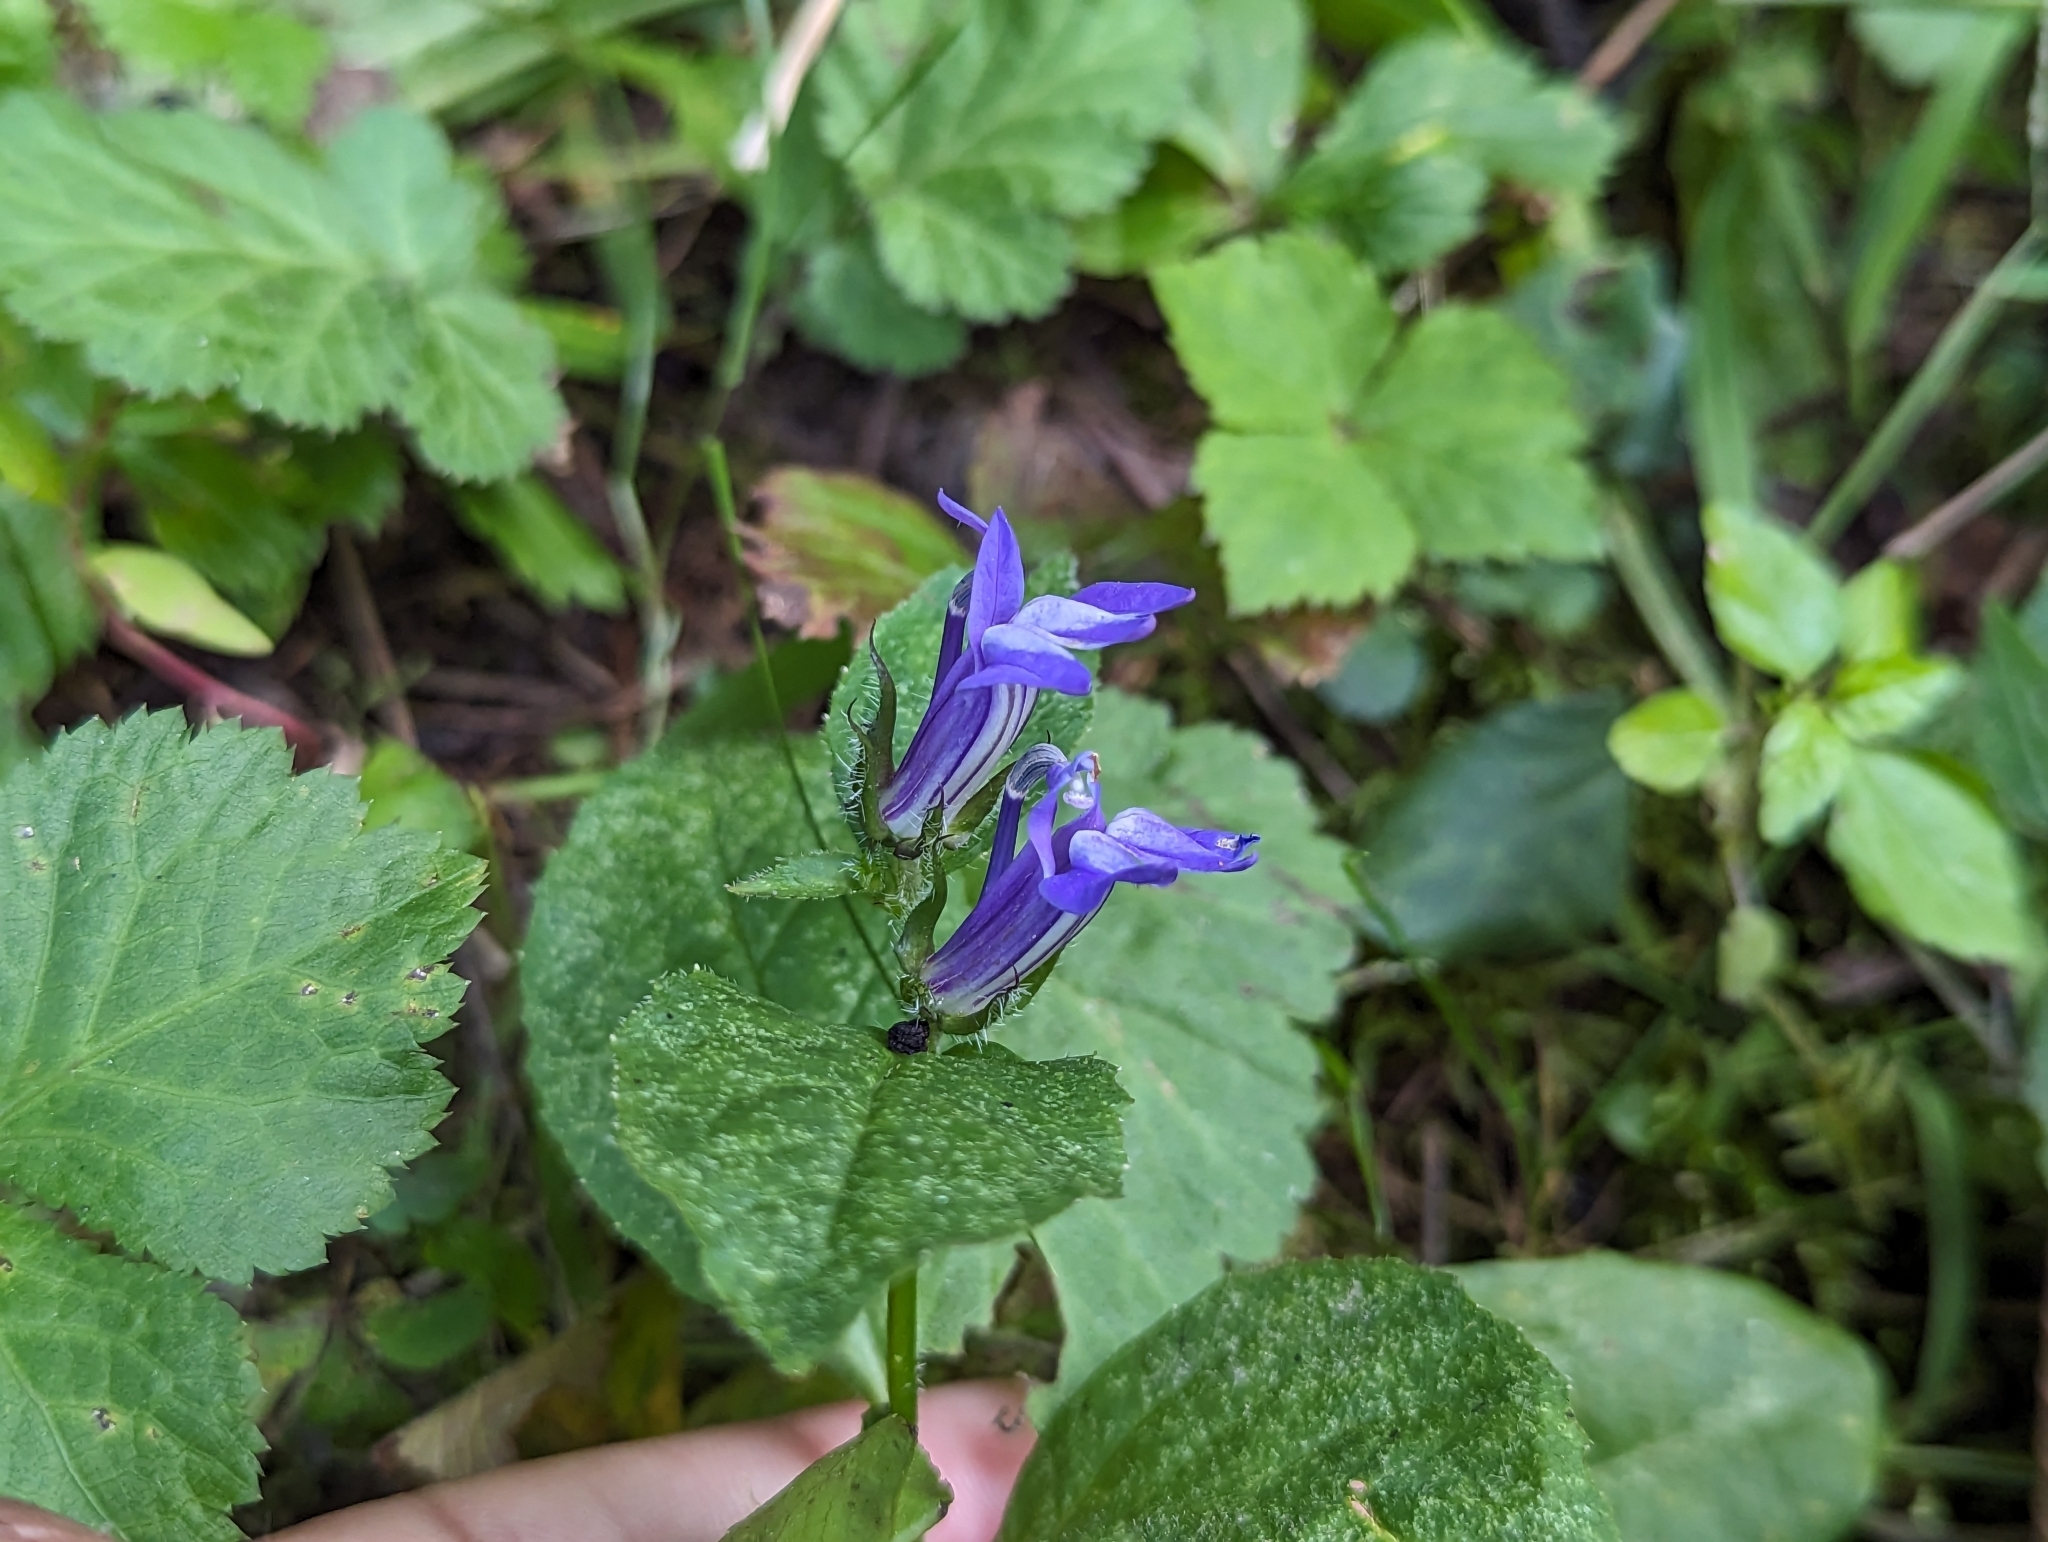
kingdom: Plantae
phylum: Tracheophyta
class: Magnoliopsida
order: Asterales
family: Campanulaceae
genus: Lobelia
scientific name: Lobelia siphilitica
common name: Great lobelia
